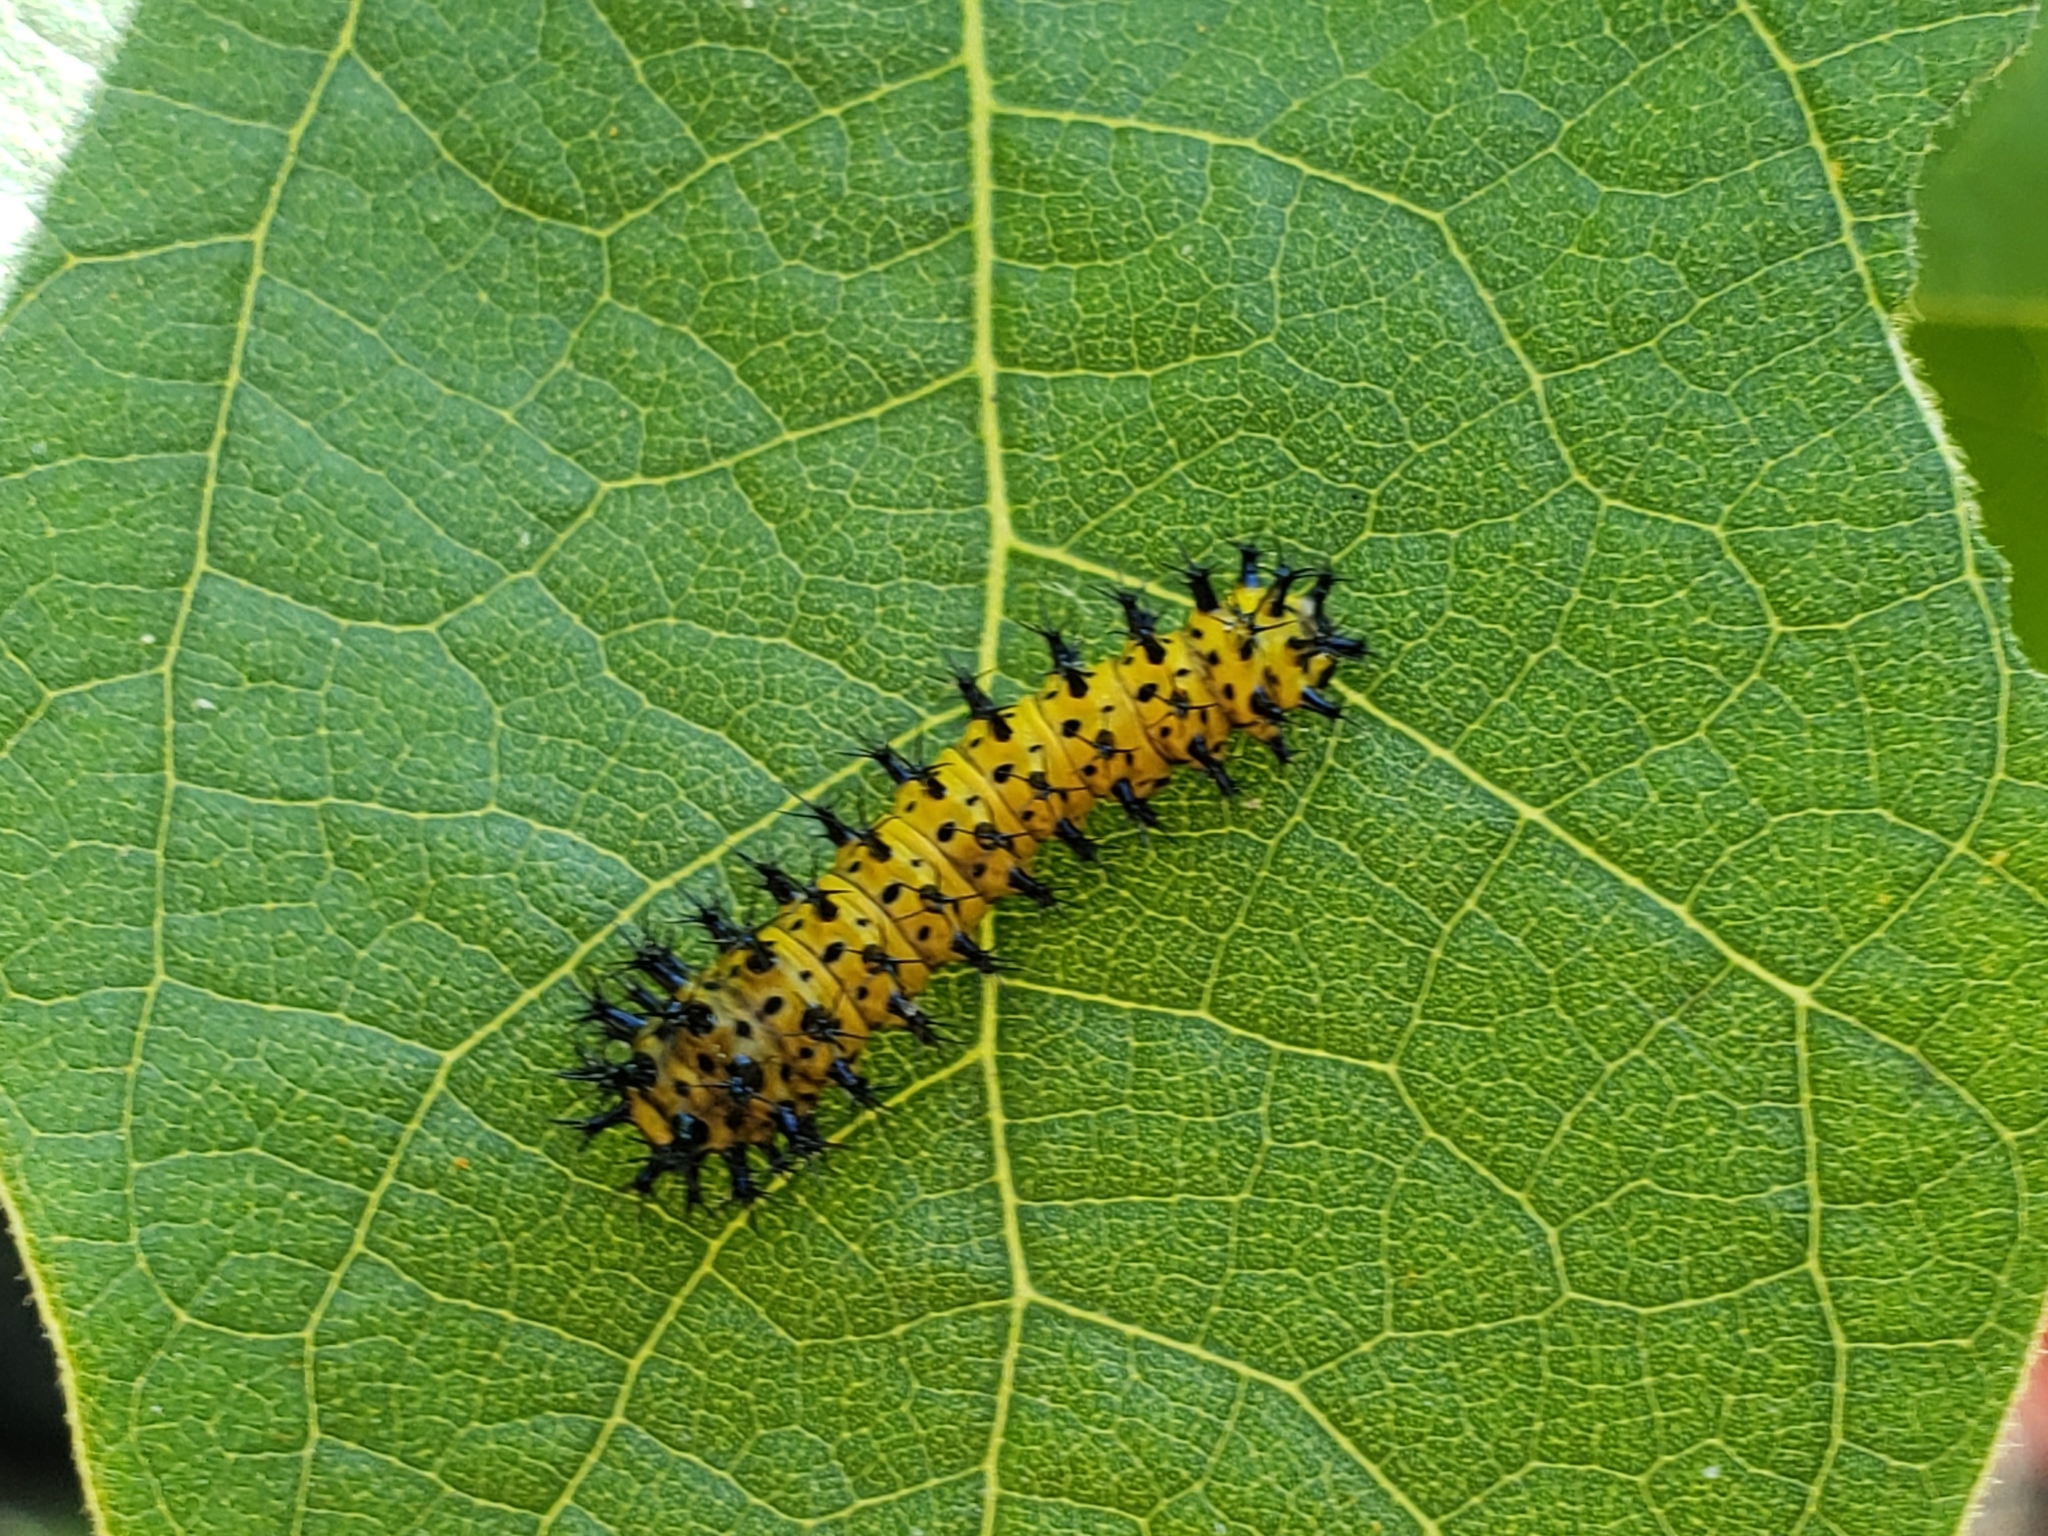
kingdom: Animalia
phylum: Arthropoda
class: Insecta
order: Lepidoptera
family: Saturniidae
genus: Hyalophora
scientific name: Hyalophora cecropia
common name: Cecropia silkmoth
